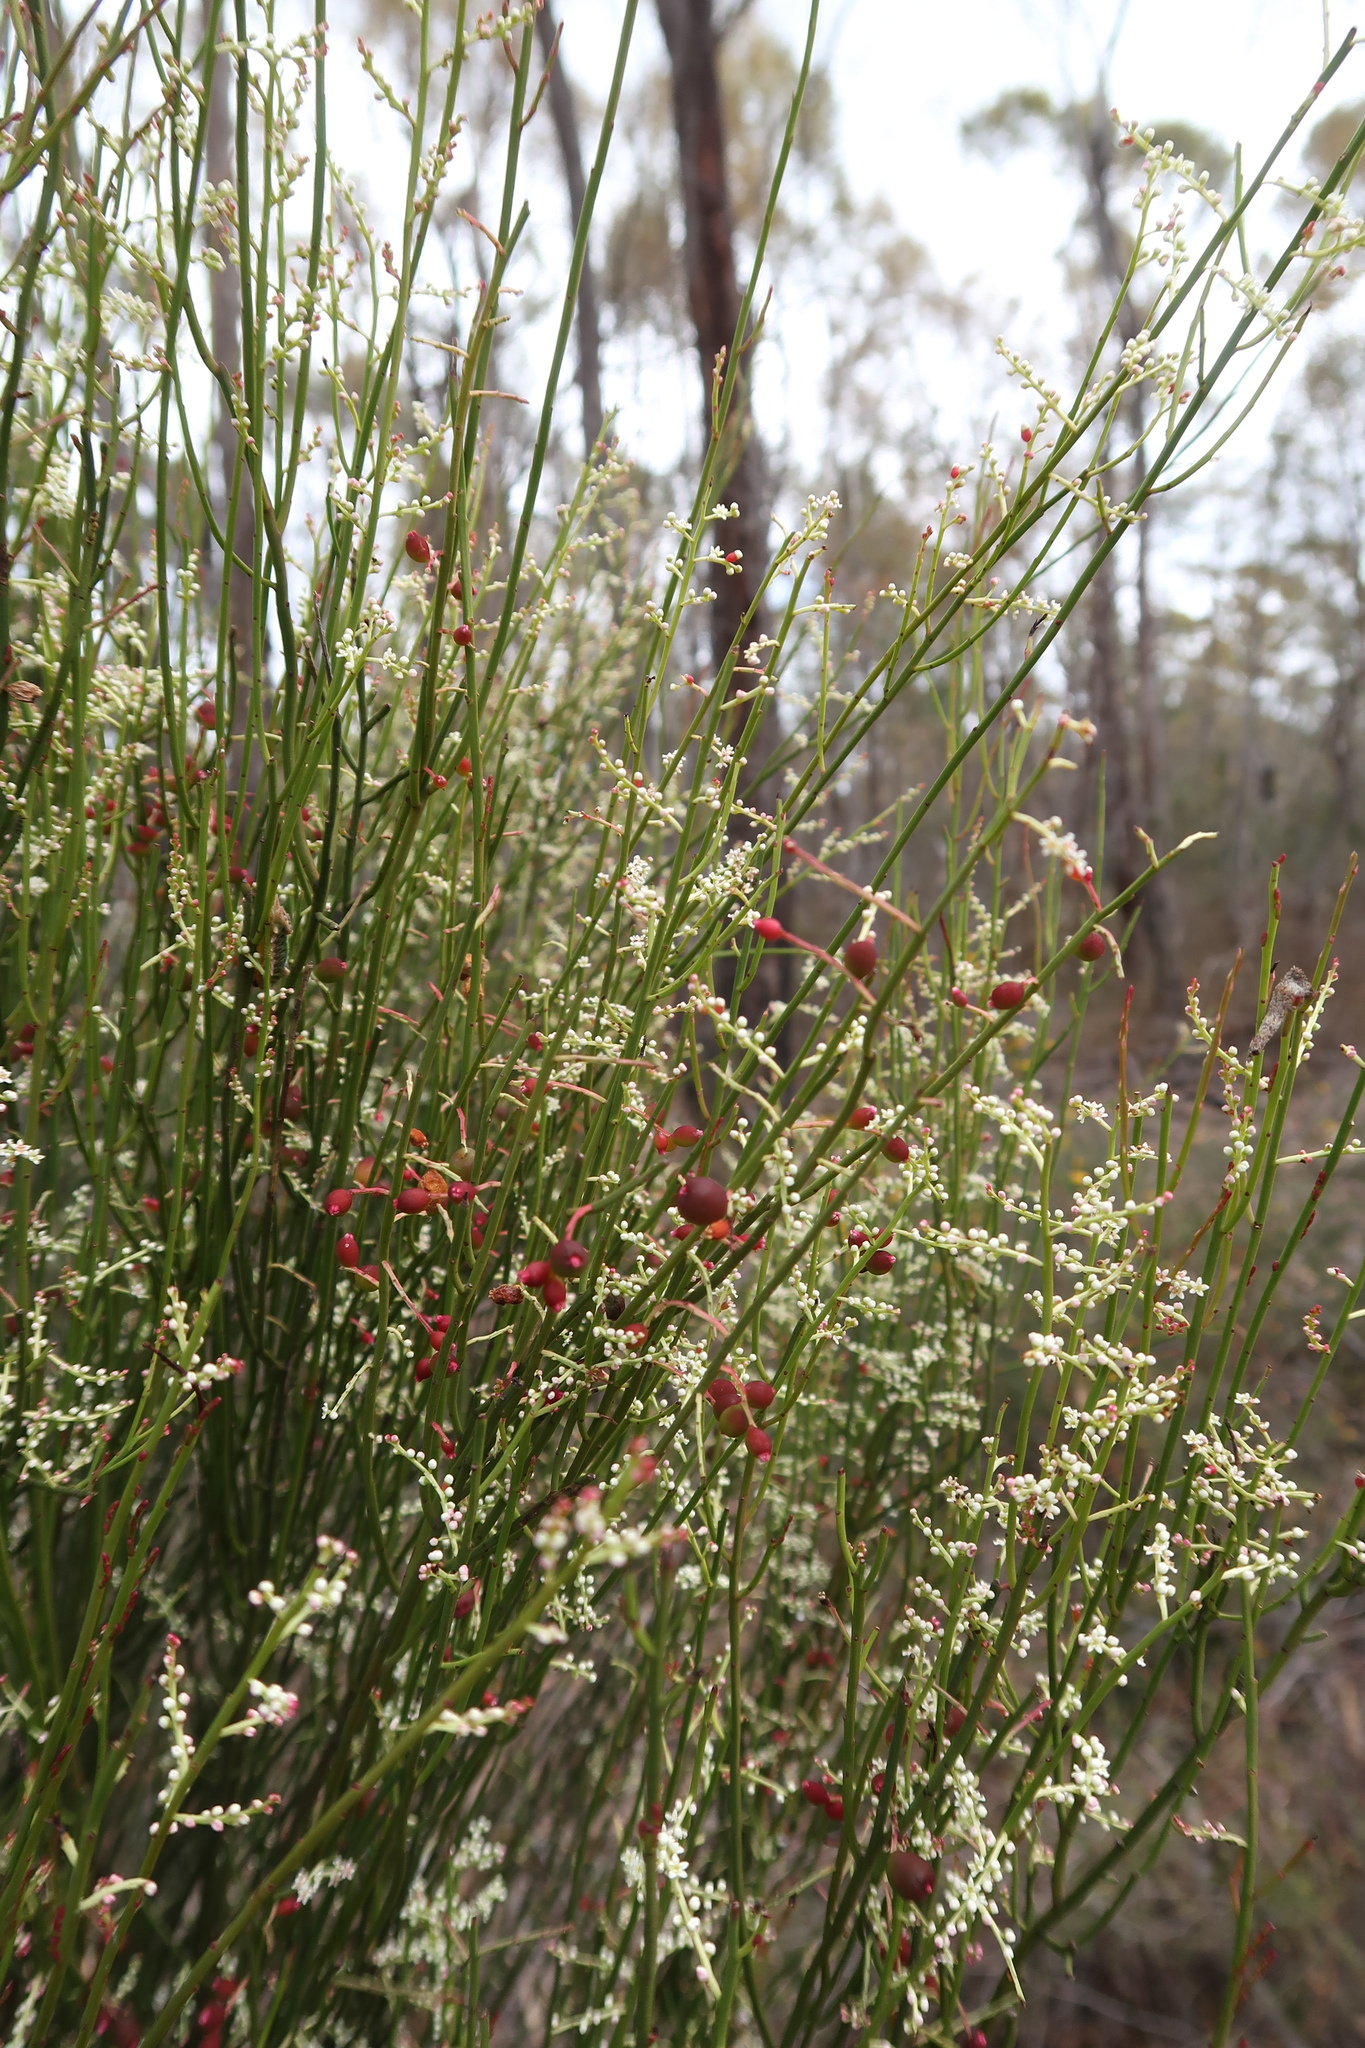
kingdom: Plantae
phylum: Tracheophyta
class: Magnoliopsida
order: Santalales
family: Amphorogynaceae
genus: Leptomeria
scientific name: Leptomeria drupacea
